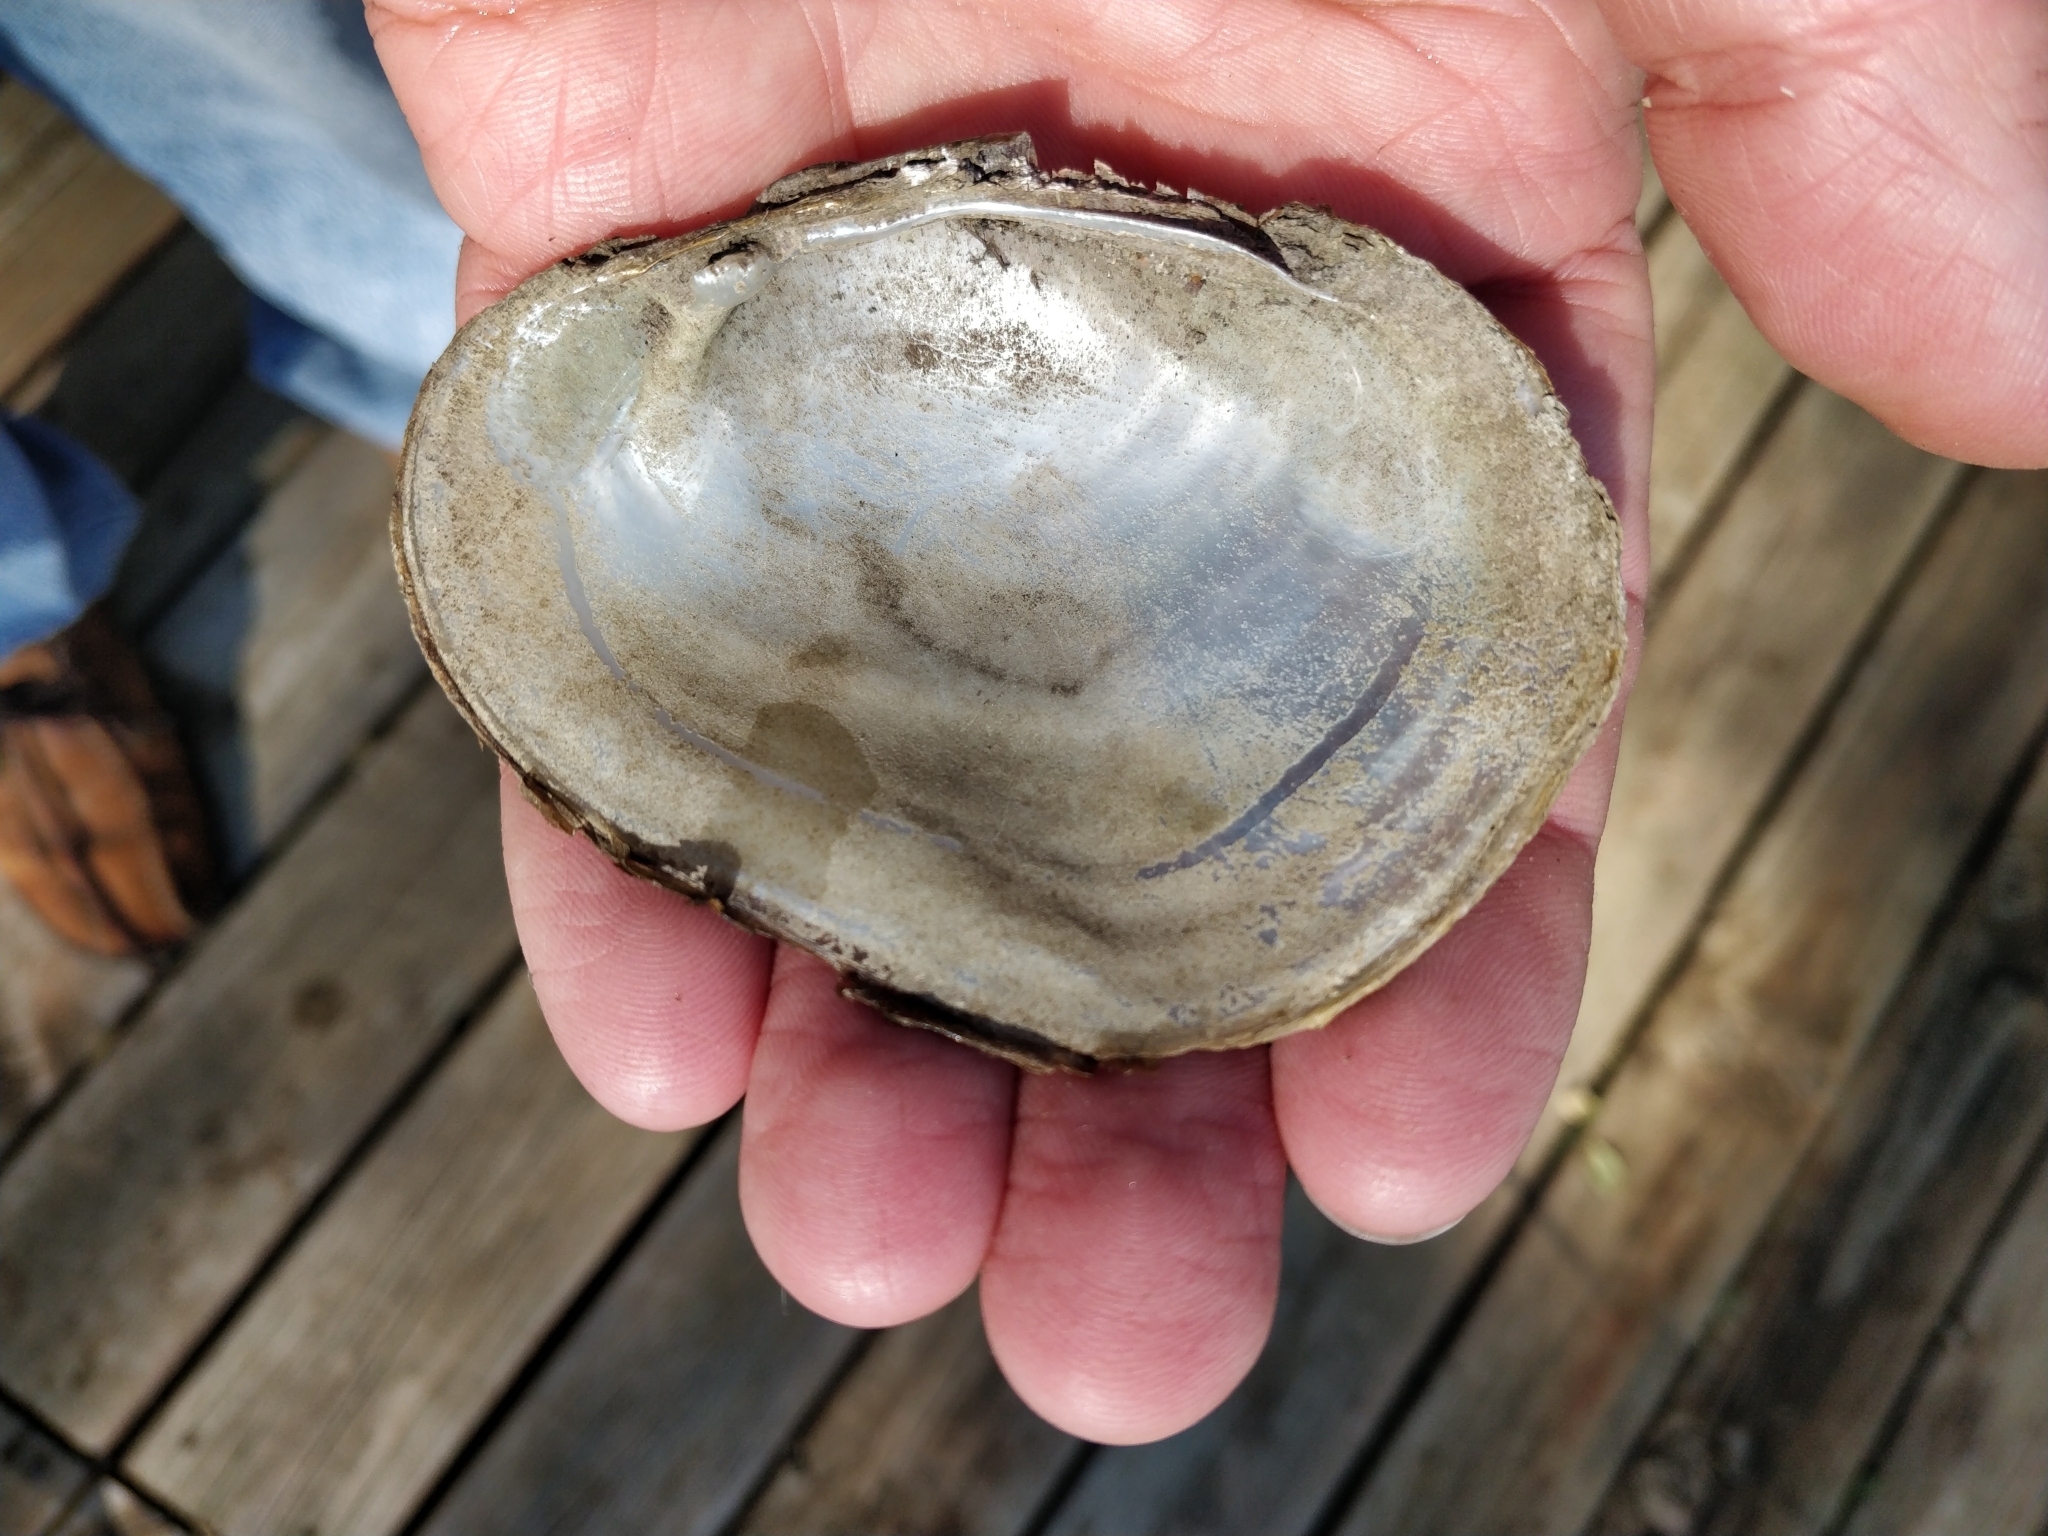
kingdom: Animalia
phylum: Mollusca
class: Bivalvia
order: Unionida
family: Unionidae
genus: Lampsilis
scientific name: Lampsilis cardium
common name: Plain pocketbook
